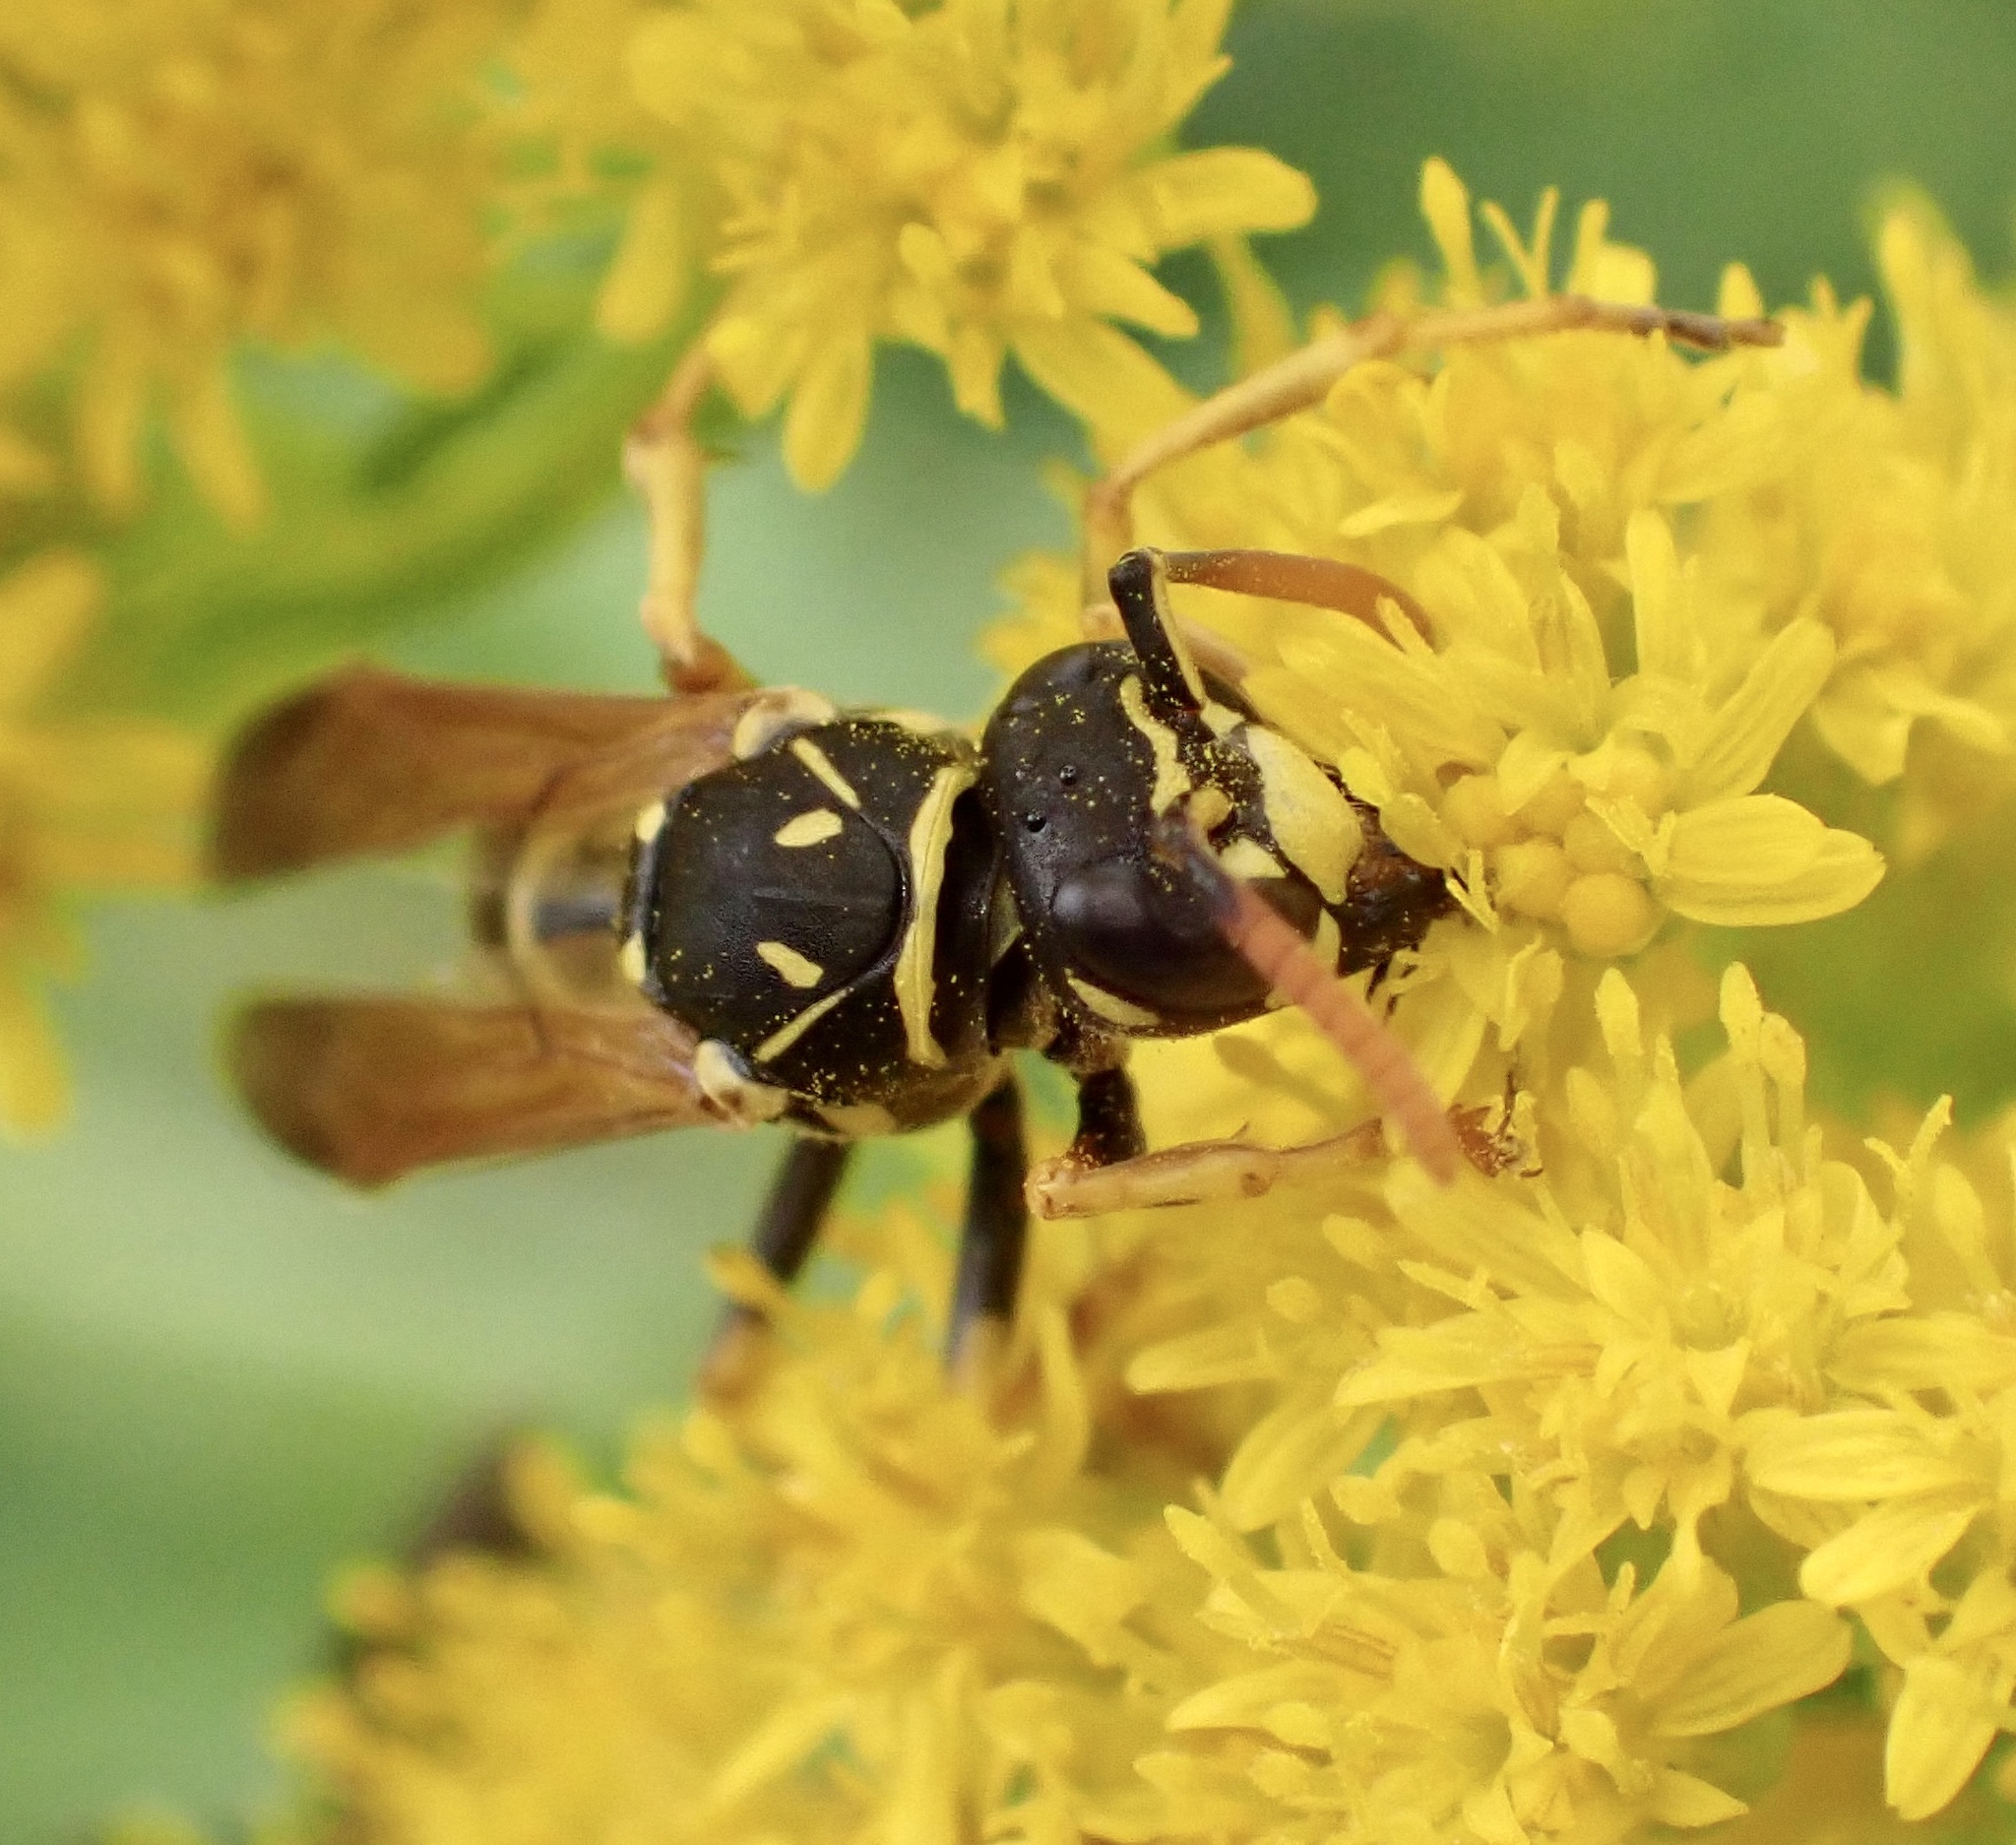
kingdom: Animalia
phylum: Arthropoda
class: Insecta
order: Hymenoptera
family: Eumenidae
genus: Polistes
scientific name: Polistes dominula
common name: Paper wasp
